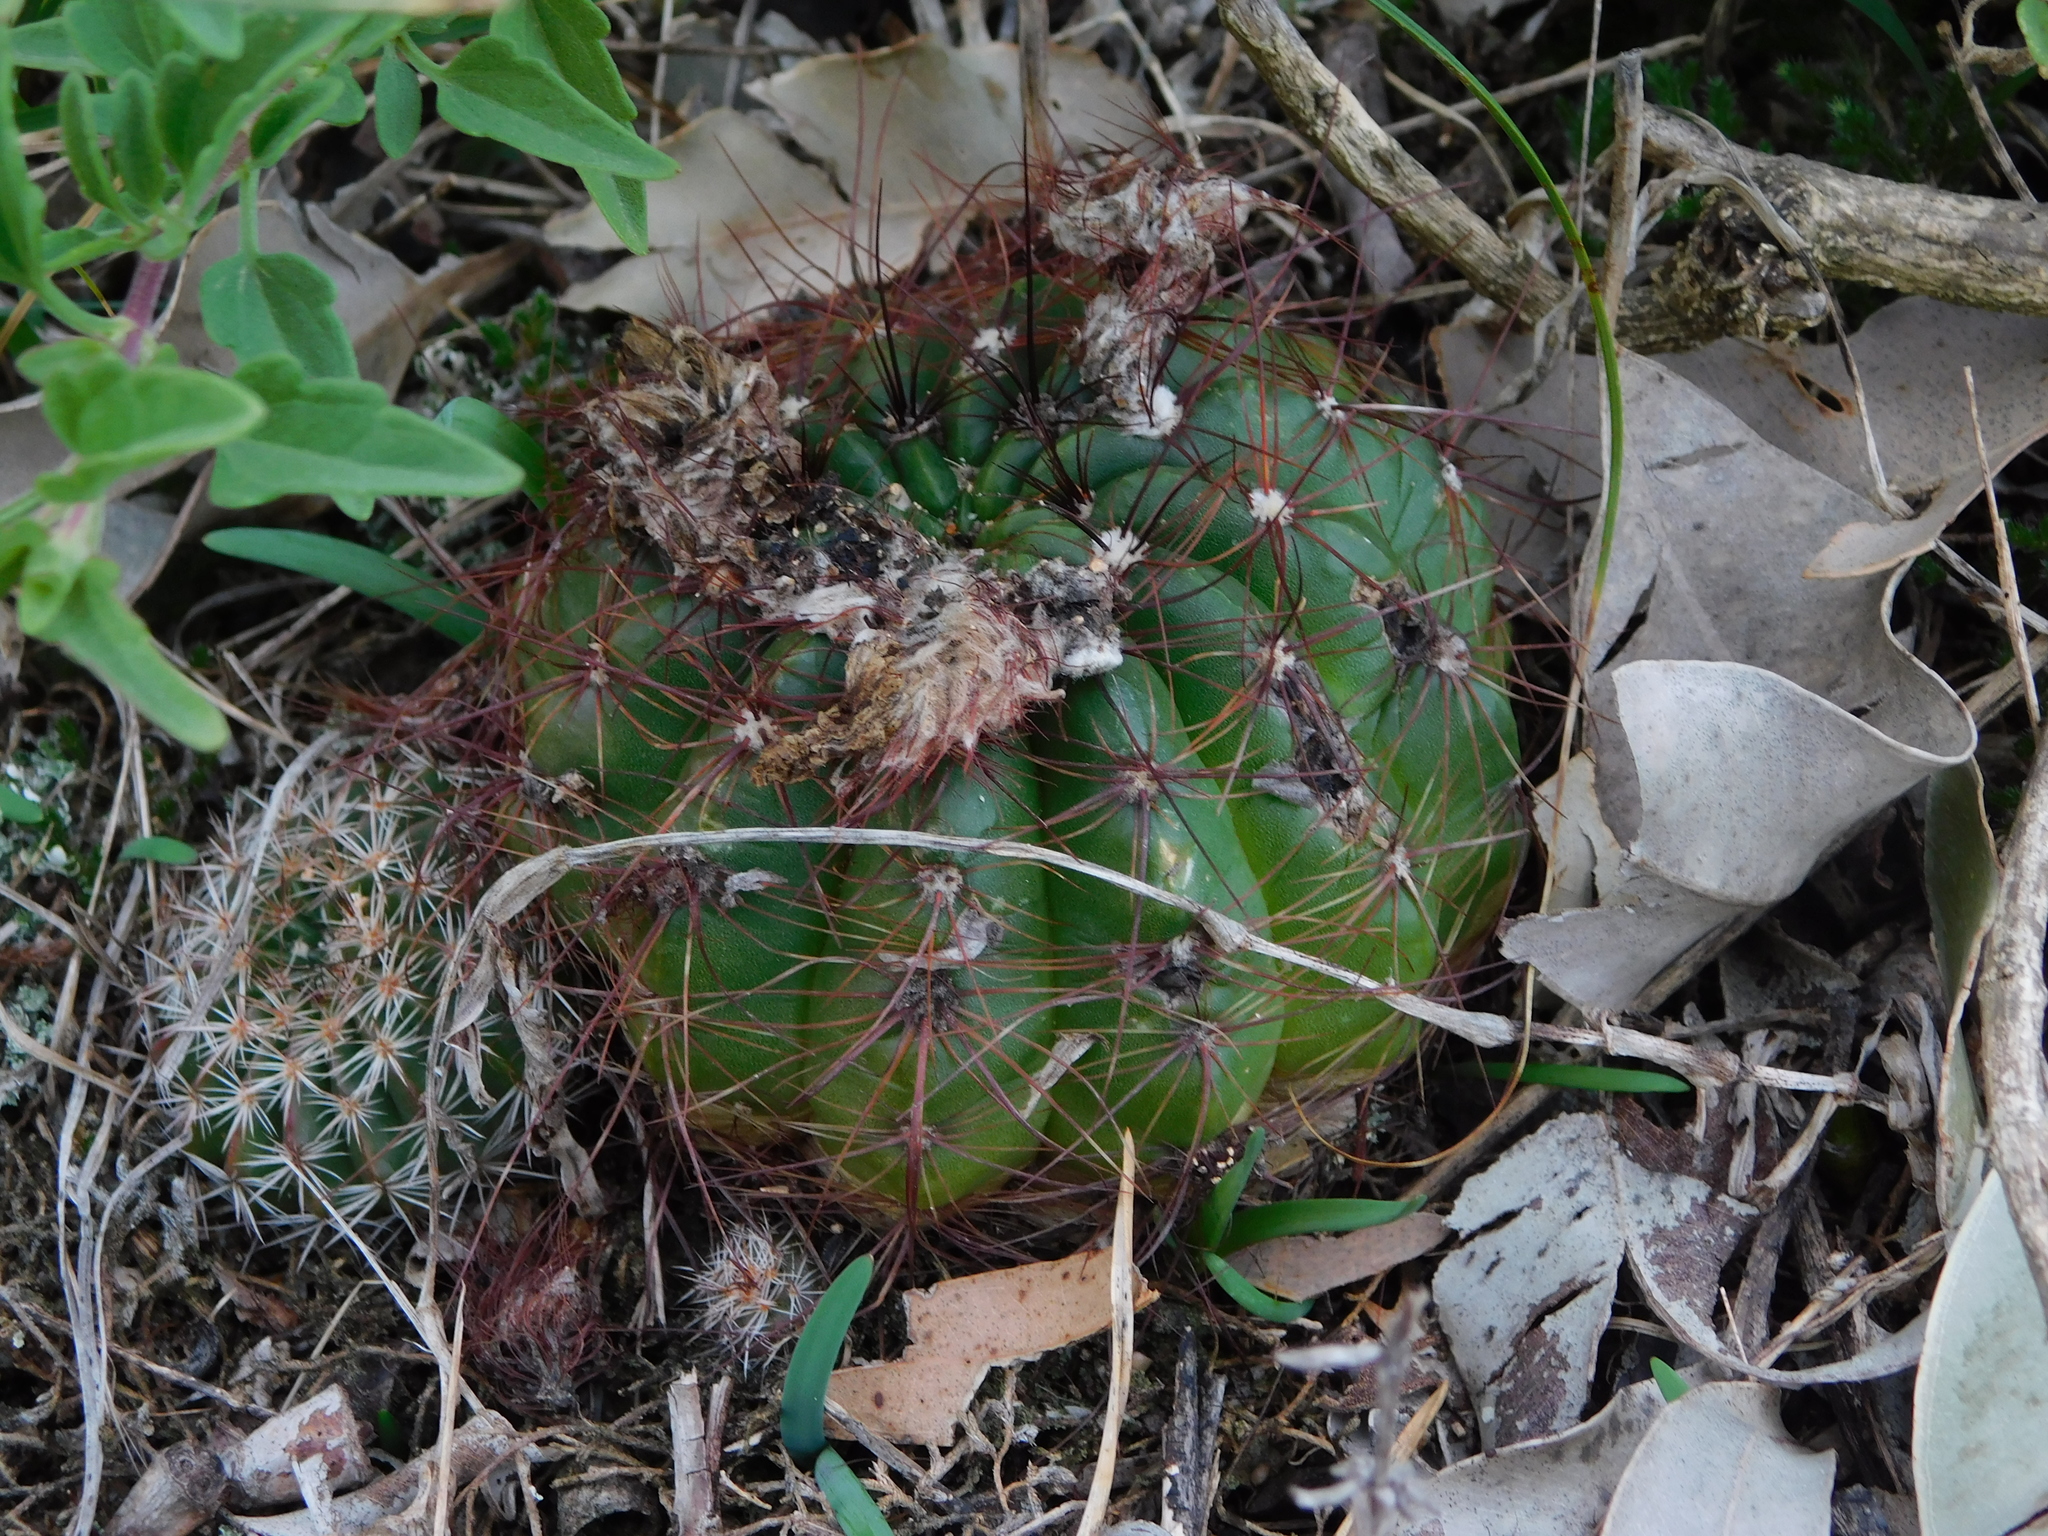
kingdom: Plantae
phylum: Tracheophyta
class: Magnoliopsida
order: Caryophyllales
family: Cactaceae
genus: Parodia
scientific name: Parodia ottonis
